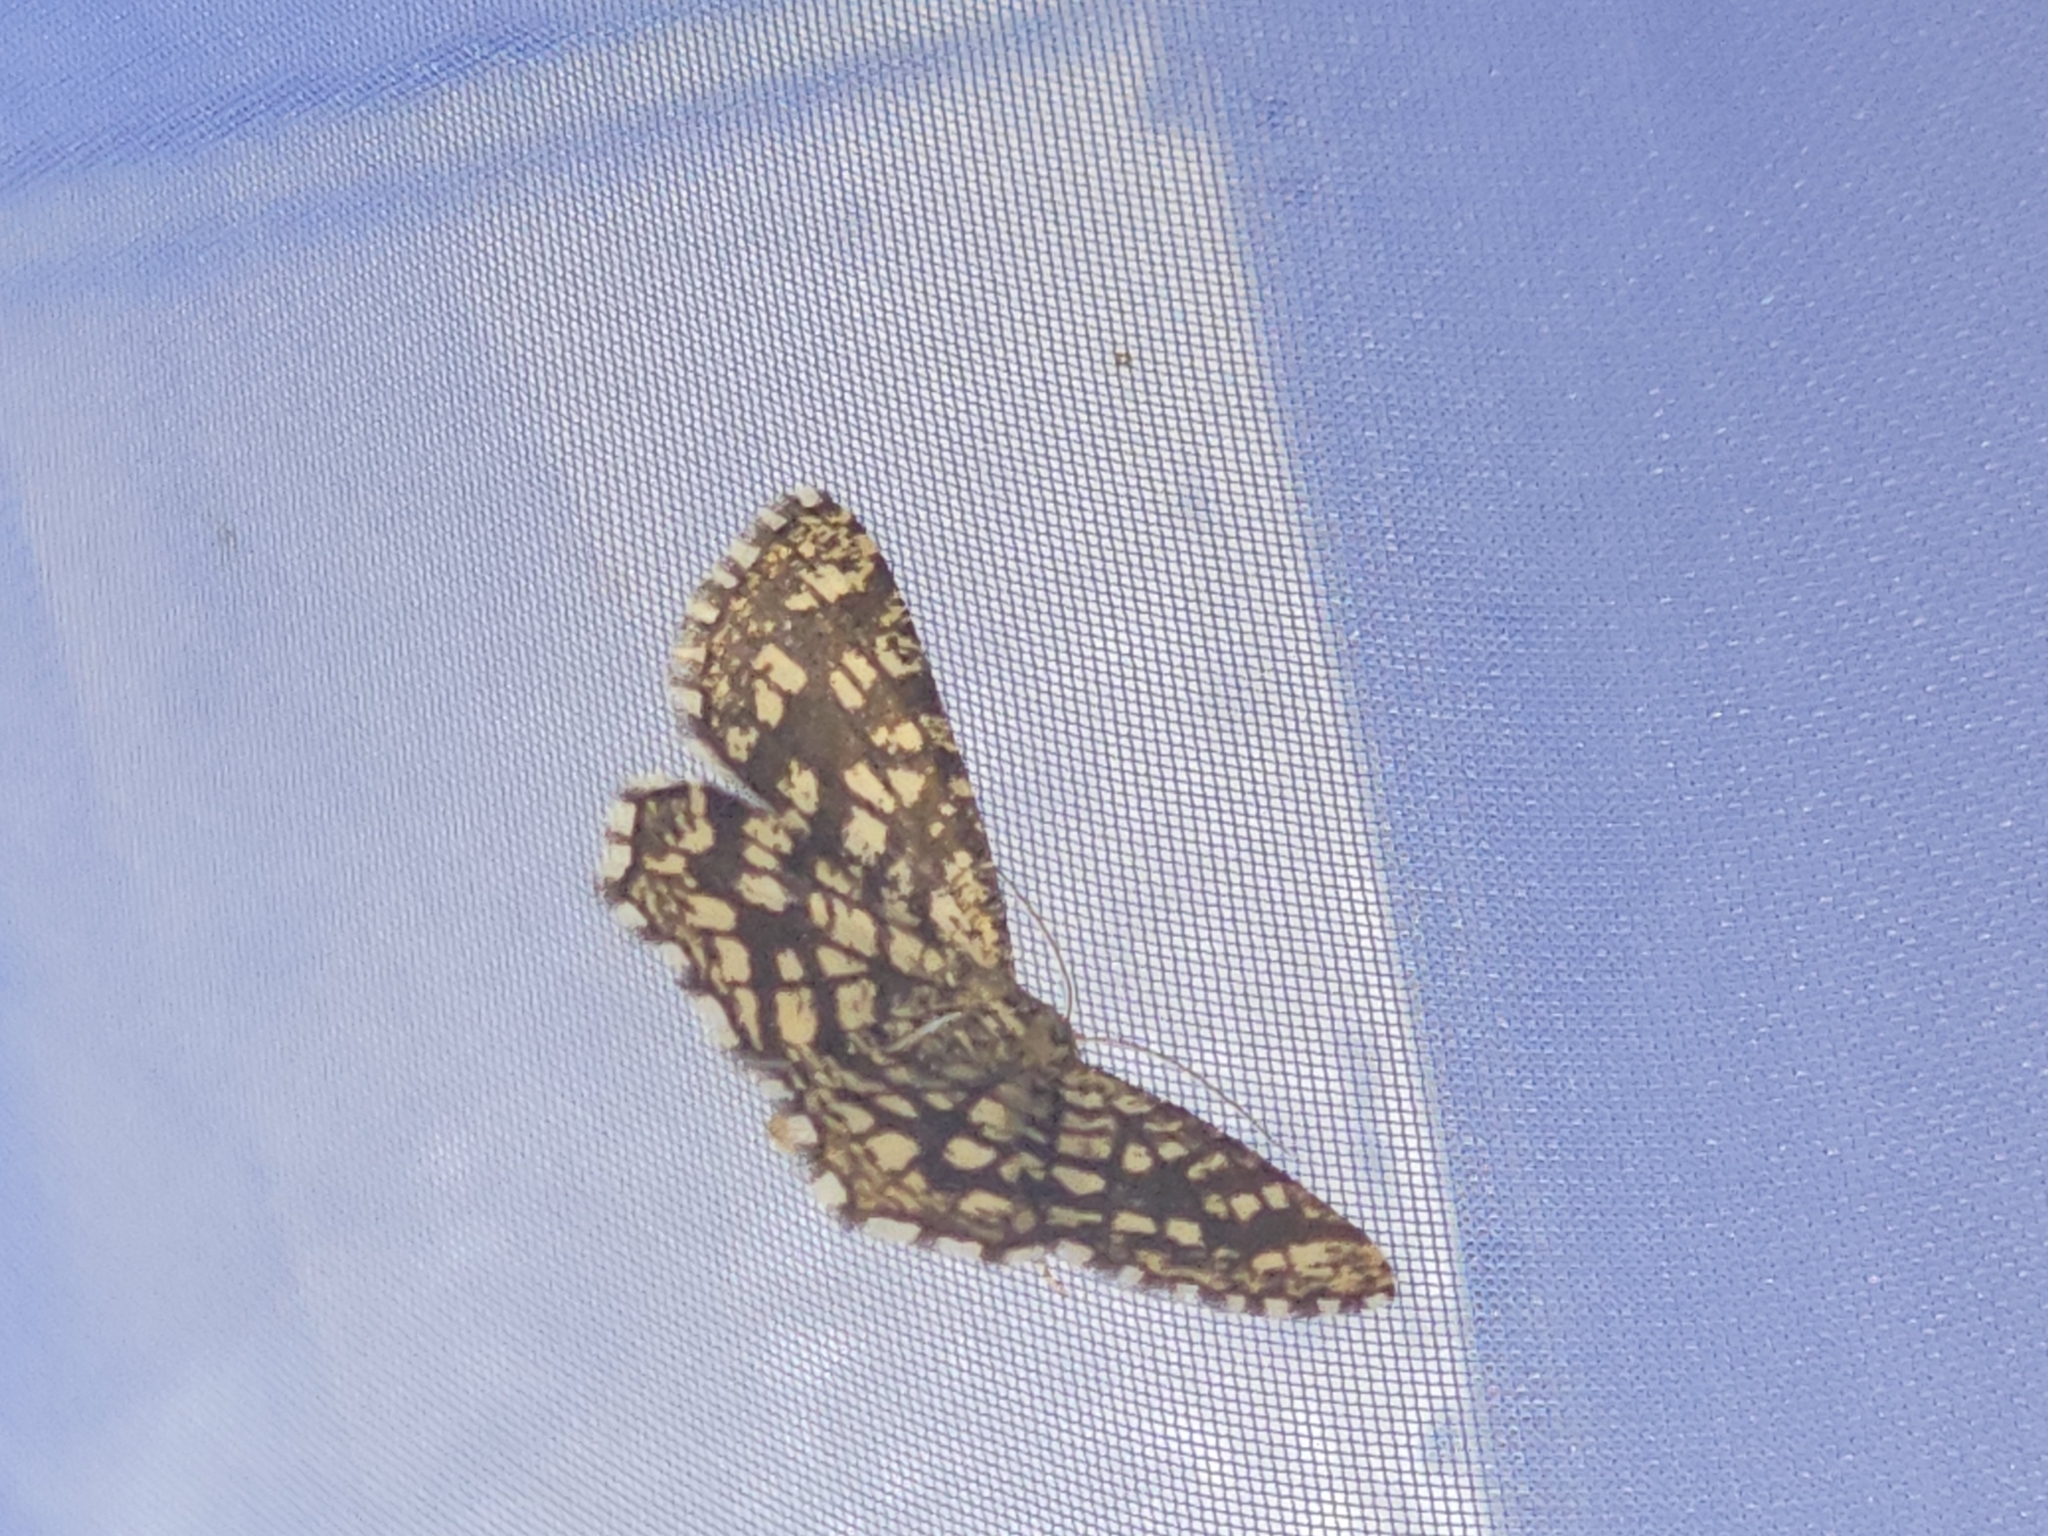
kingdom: Animalia
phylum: Arthropoda
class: Insecta
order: Lepidoptera
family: Geometridae
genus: Chiasmia
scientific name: Chiasmia clathrata
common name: Latticed heath
